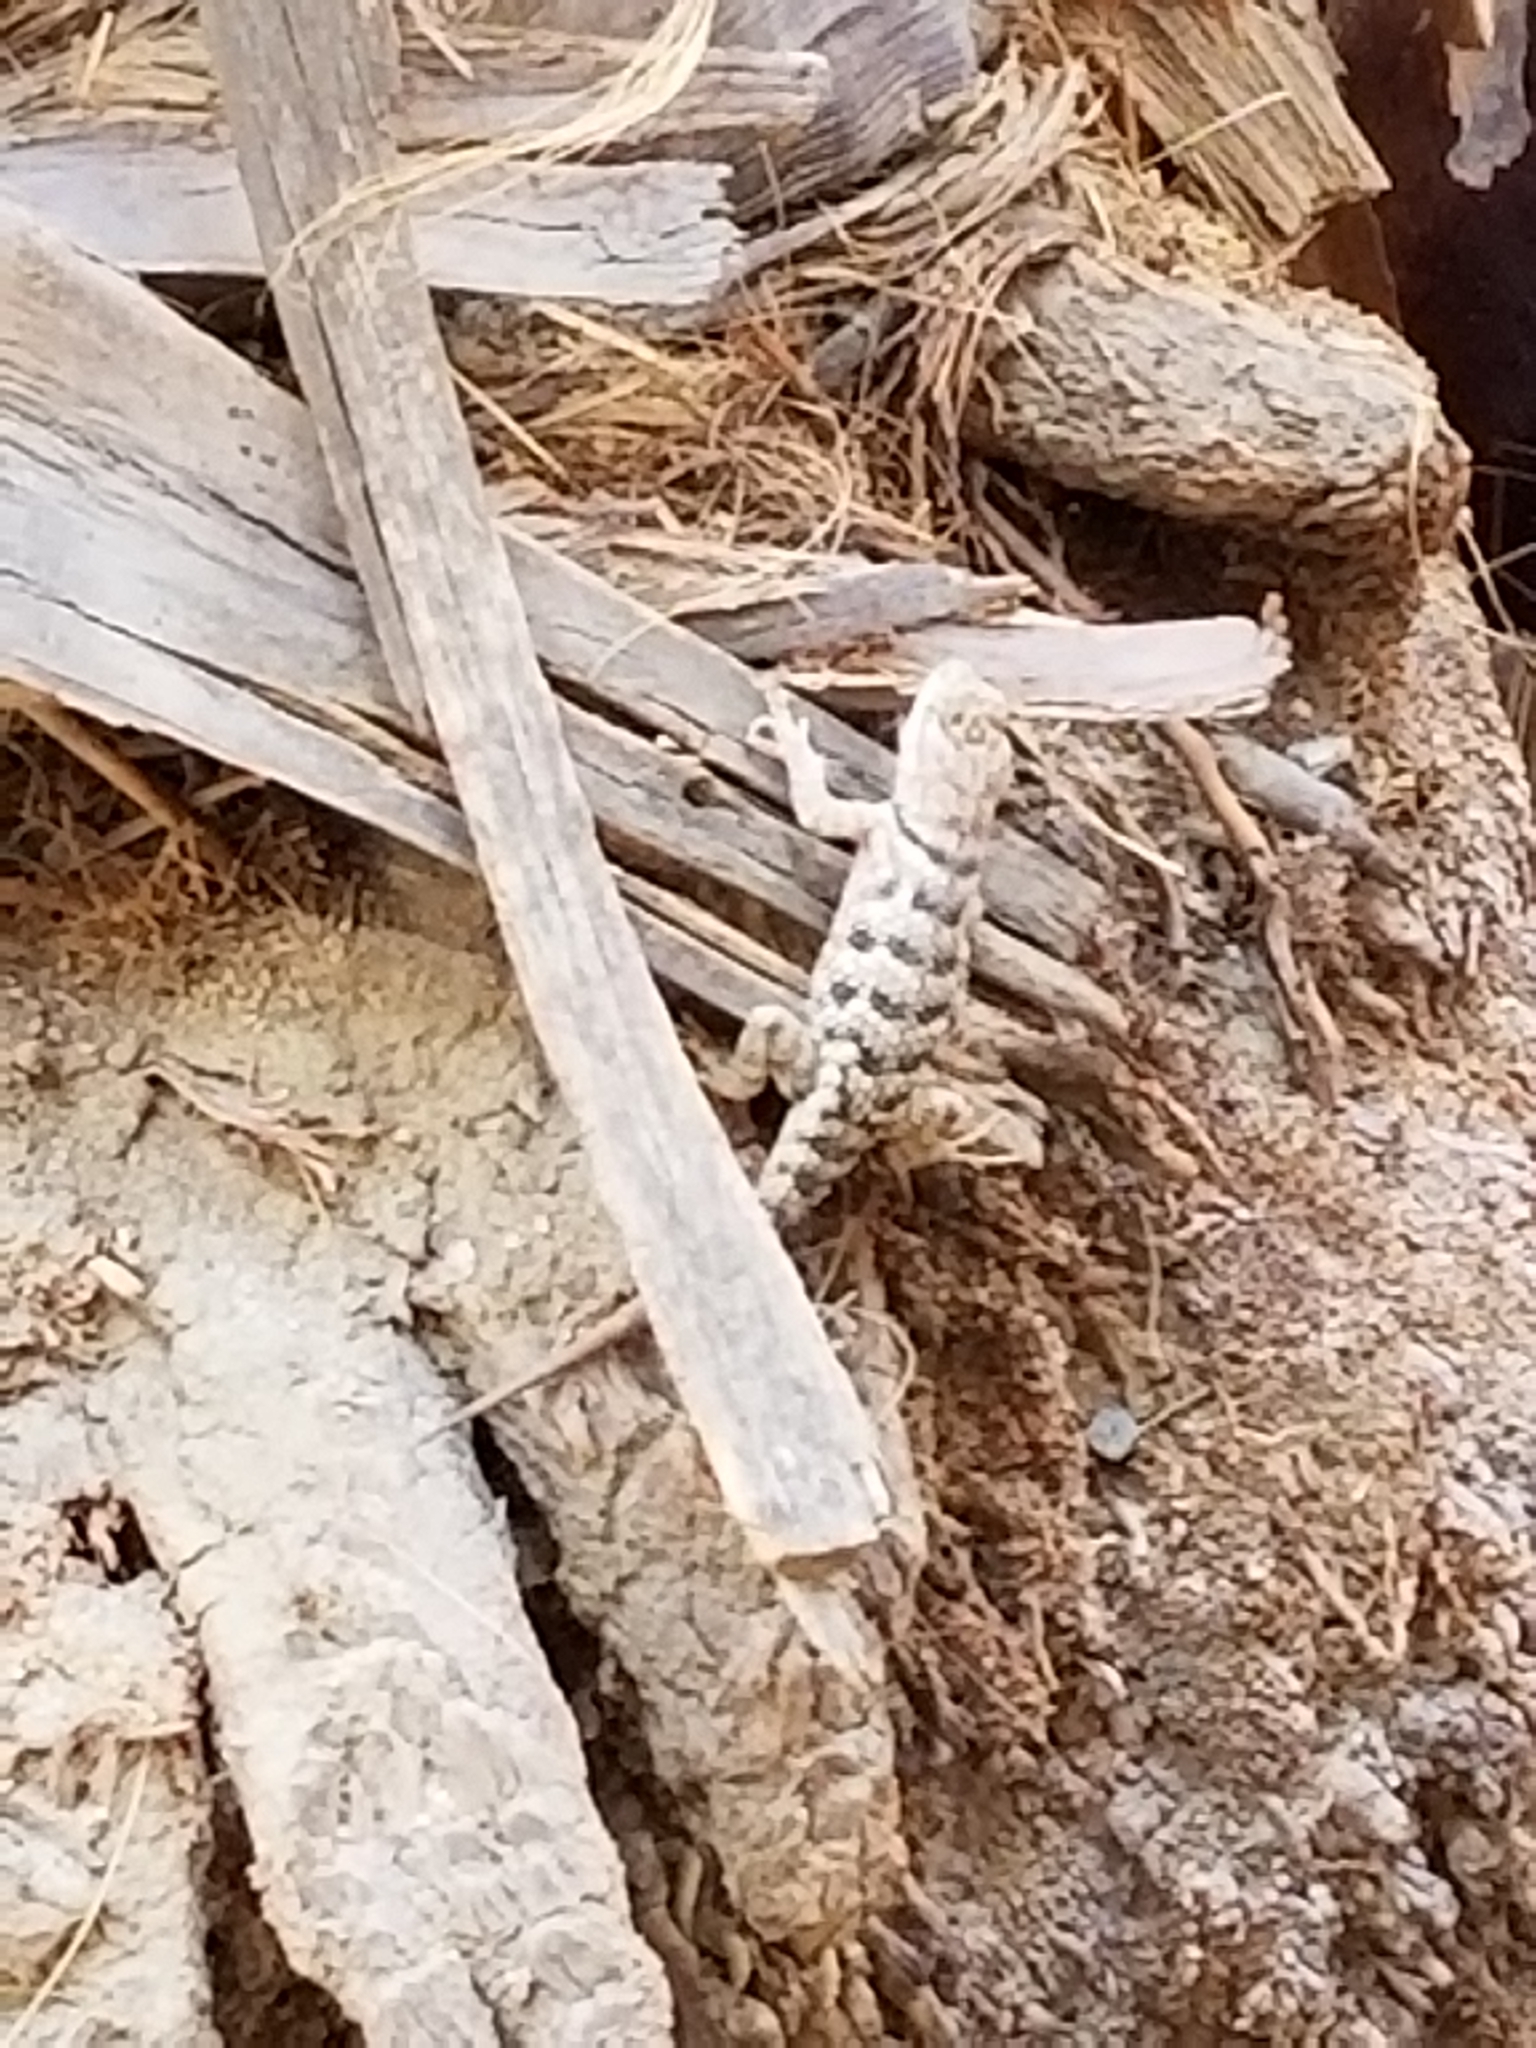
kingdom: Animalia
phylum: Chordata
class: Squamata
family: Phrynosomatidae
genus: Sceloporus
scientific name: Sceloporus magister
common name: Desert spiny lizard
